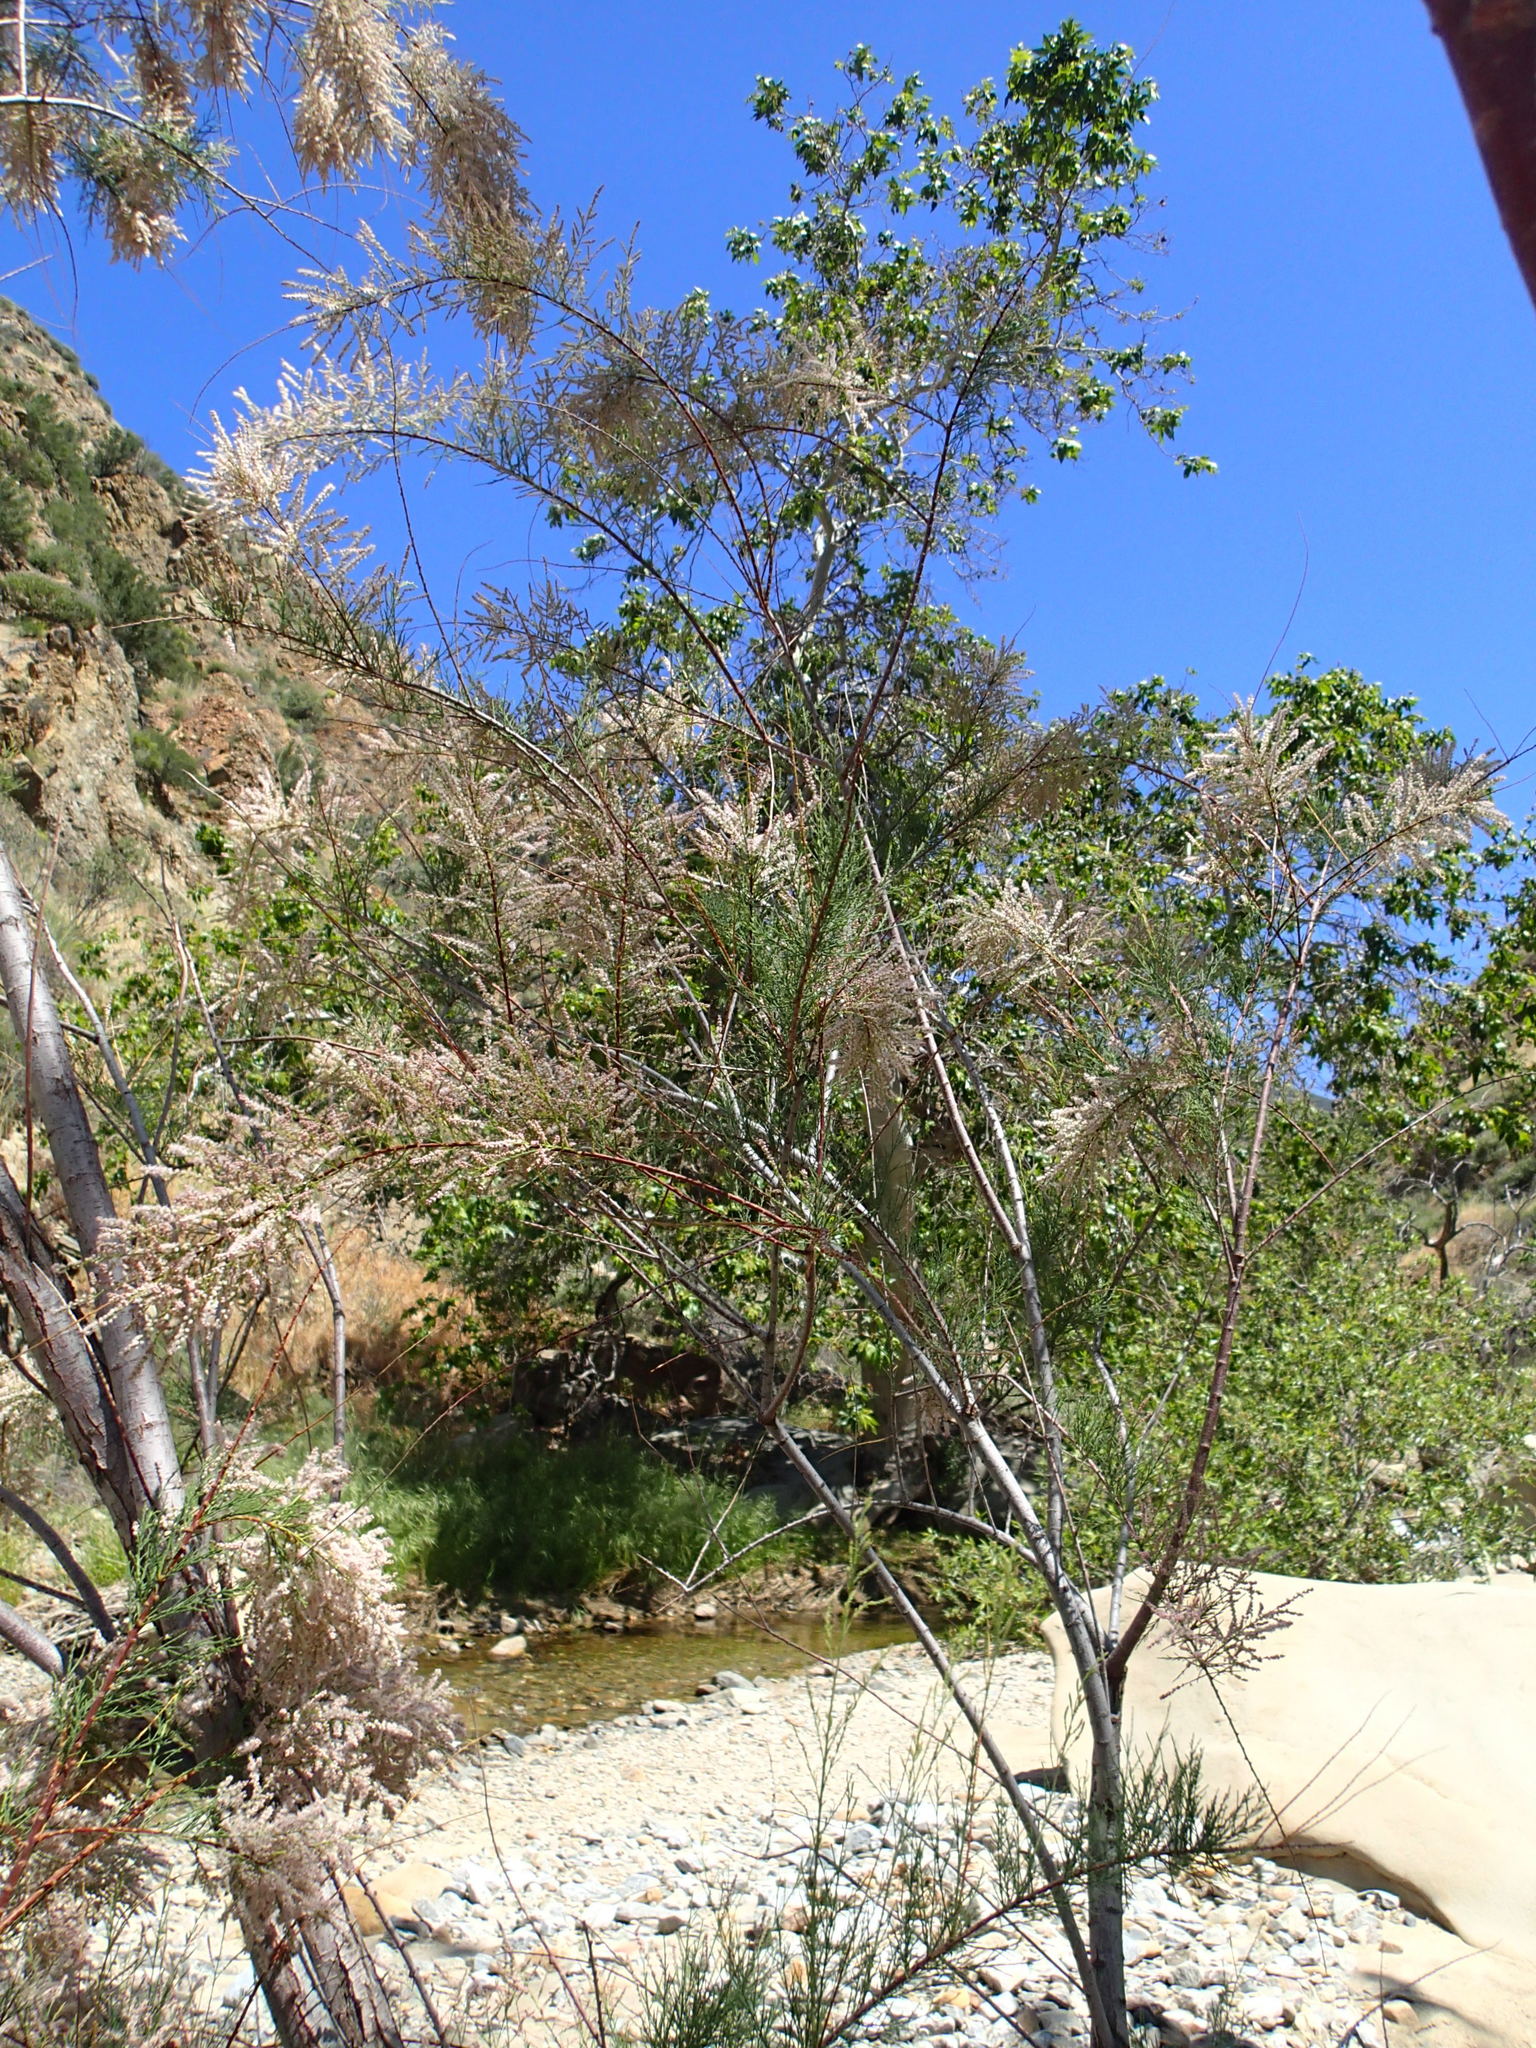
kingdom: Plantae
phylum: Tracheophyta
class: Magnoliopsida
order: Caryophyllales
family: Tamaricaceae
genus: Tamarix
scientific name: Tamarix ramosissima
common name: Pink tamarisk
